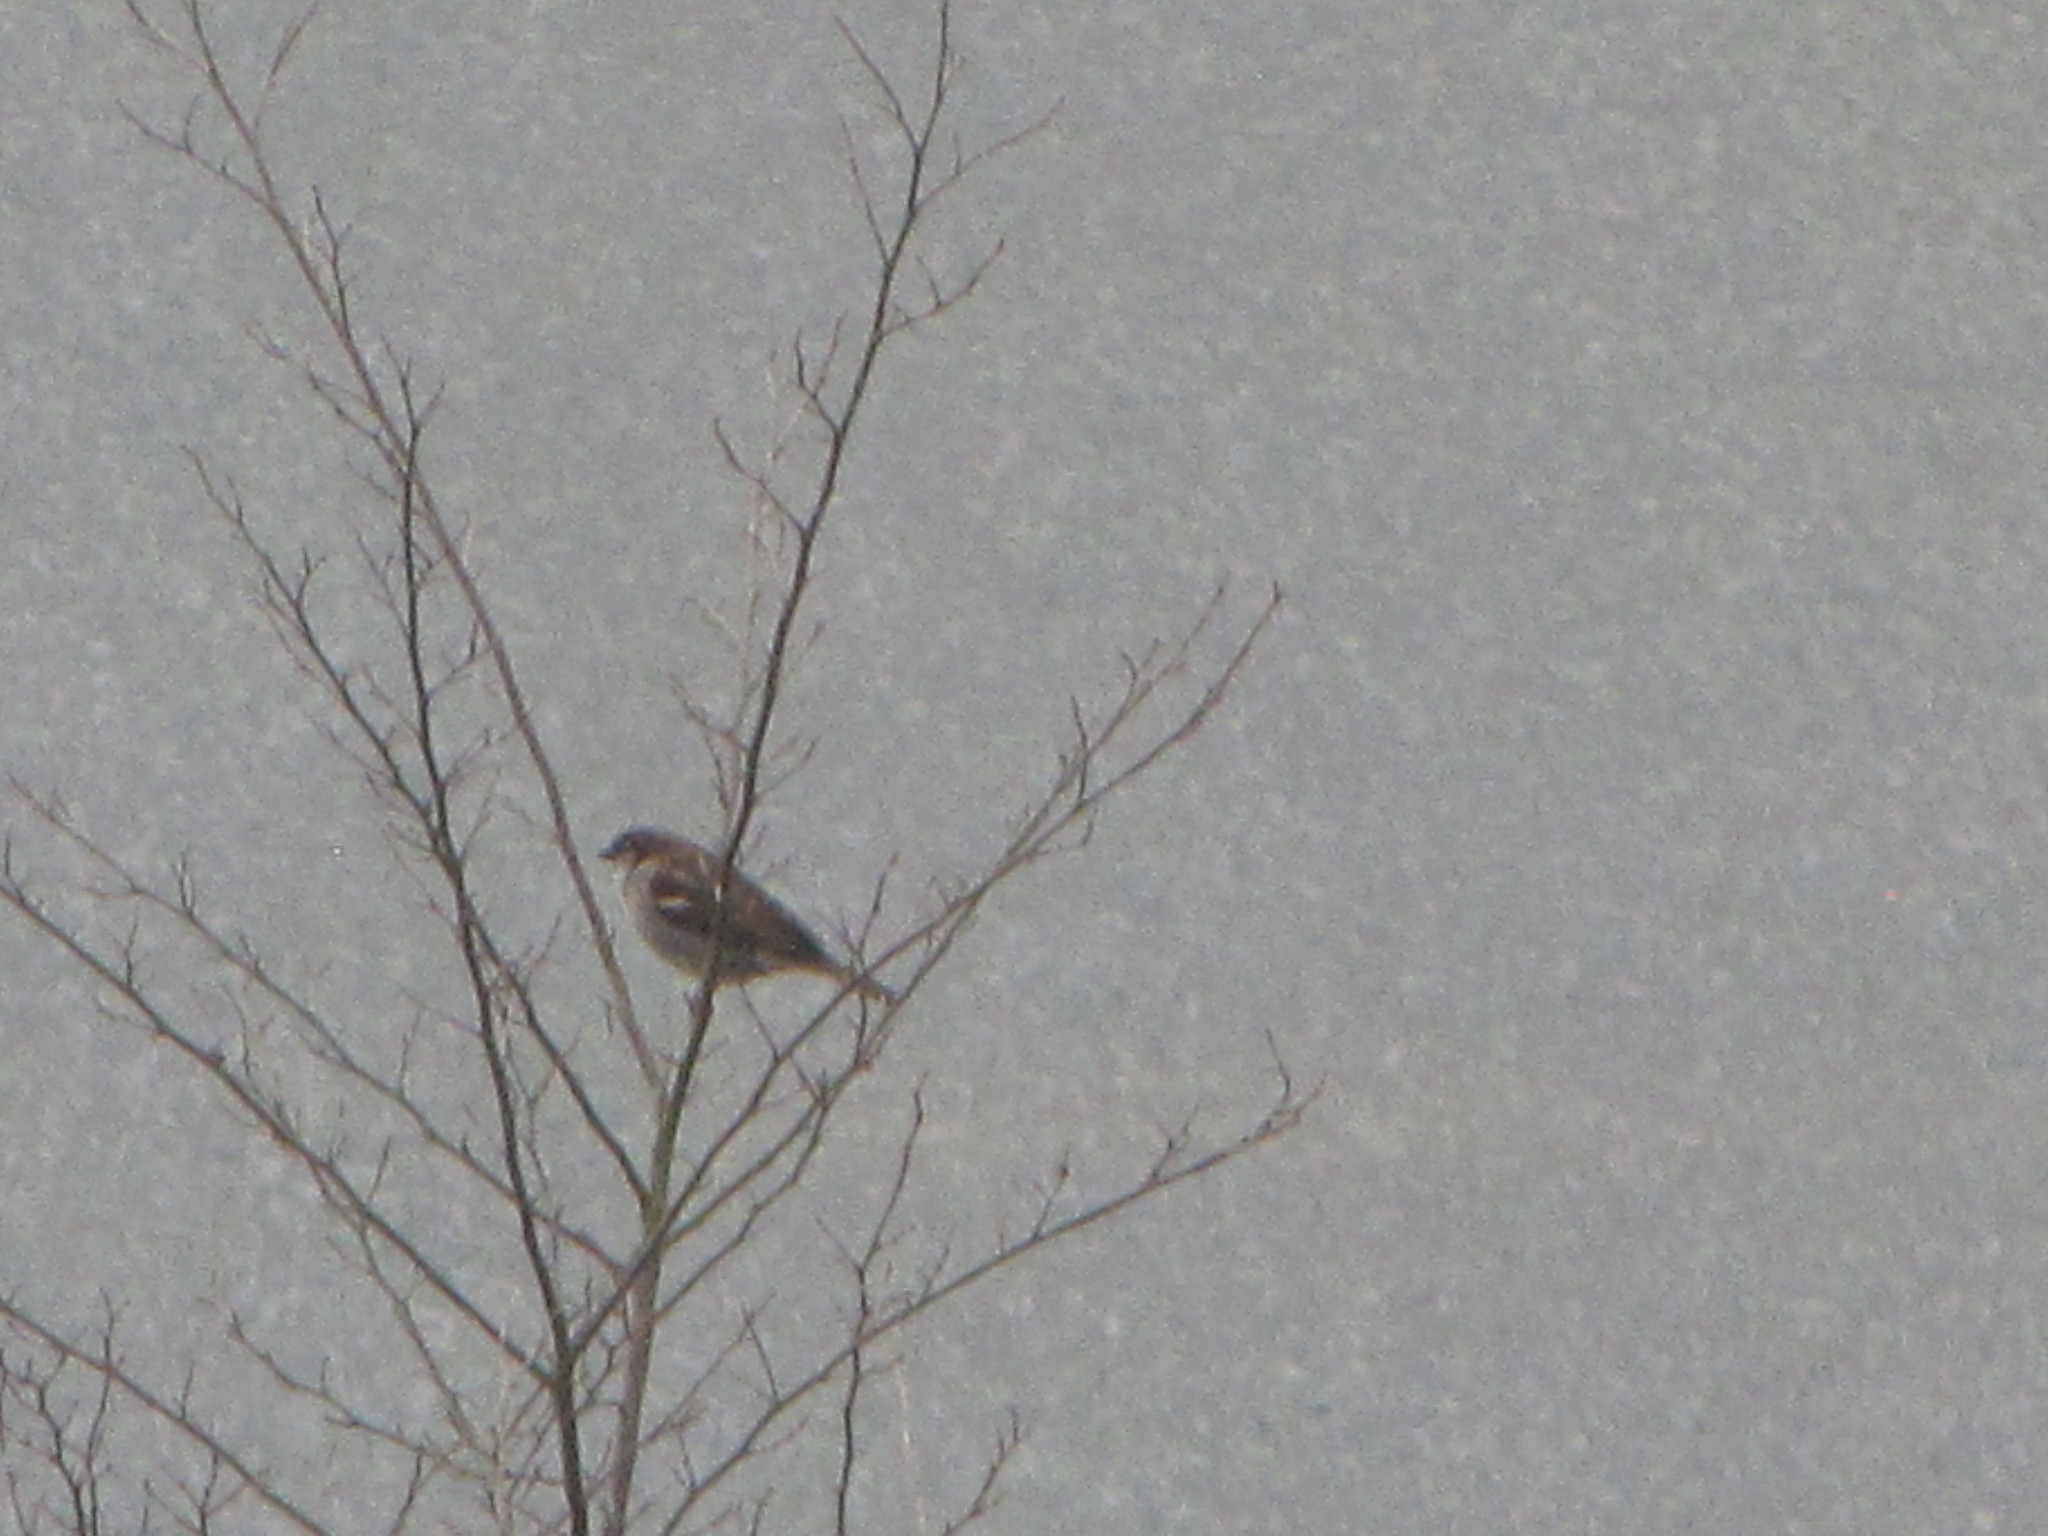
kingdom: Animalia
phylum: Chordata
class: Aves
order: Passeriformes
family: Passeridae
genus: Passer
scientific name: Passer domesticus
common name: House sparrow
